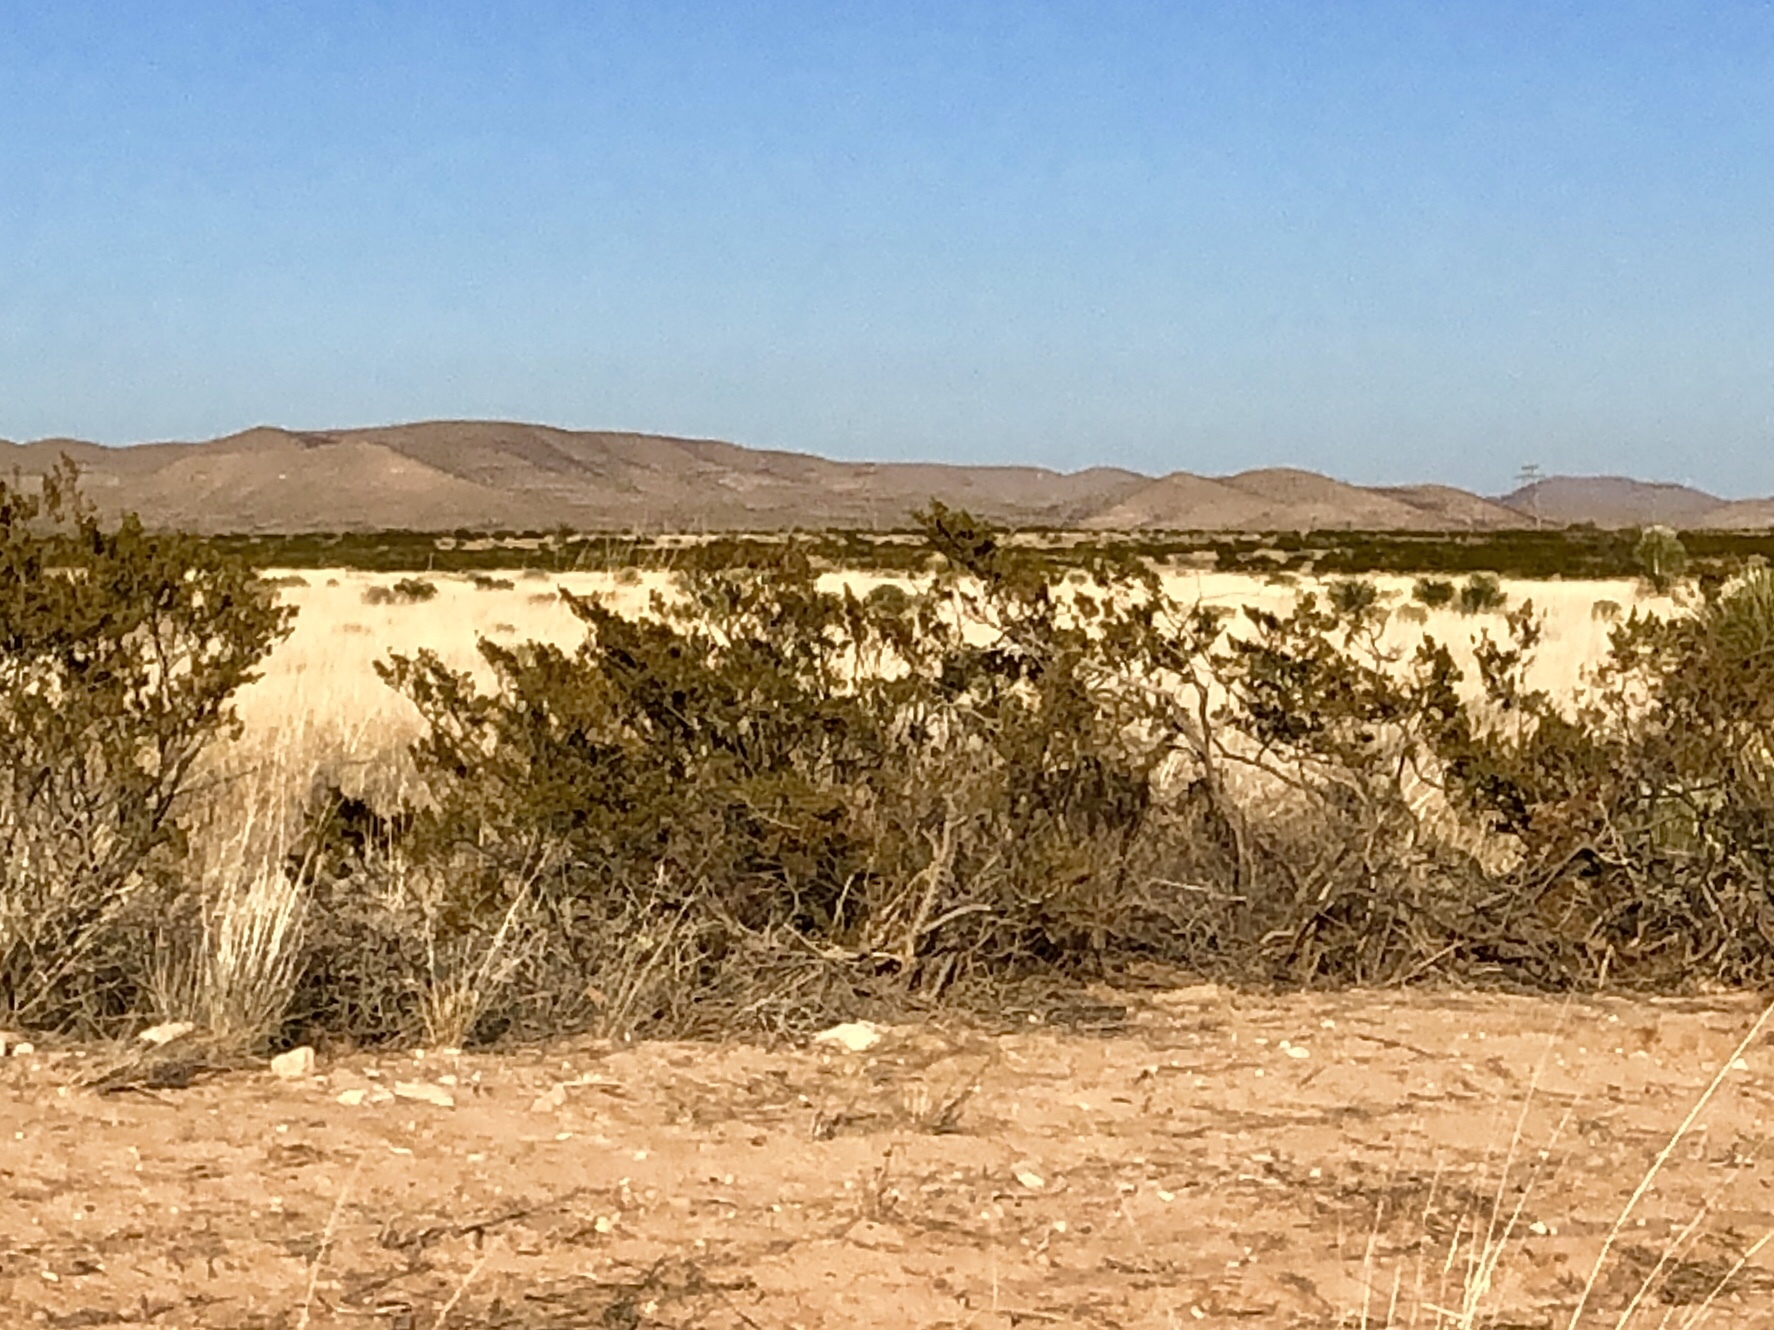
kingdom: Plantae
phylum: Tracheophyta
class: Magnoliopsida
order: Zygophyllales
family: Zygophyllaceae
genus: Larrea
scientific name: Larrea tridentata
